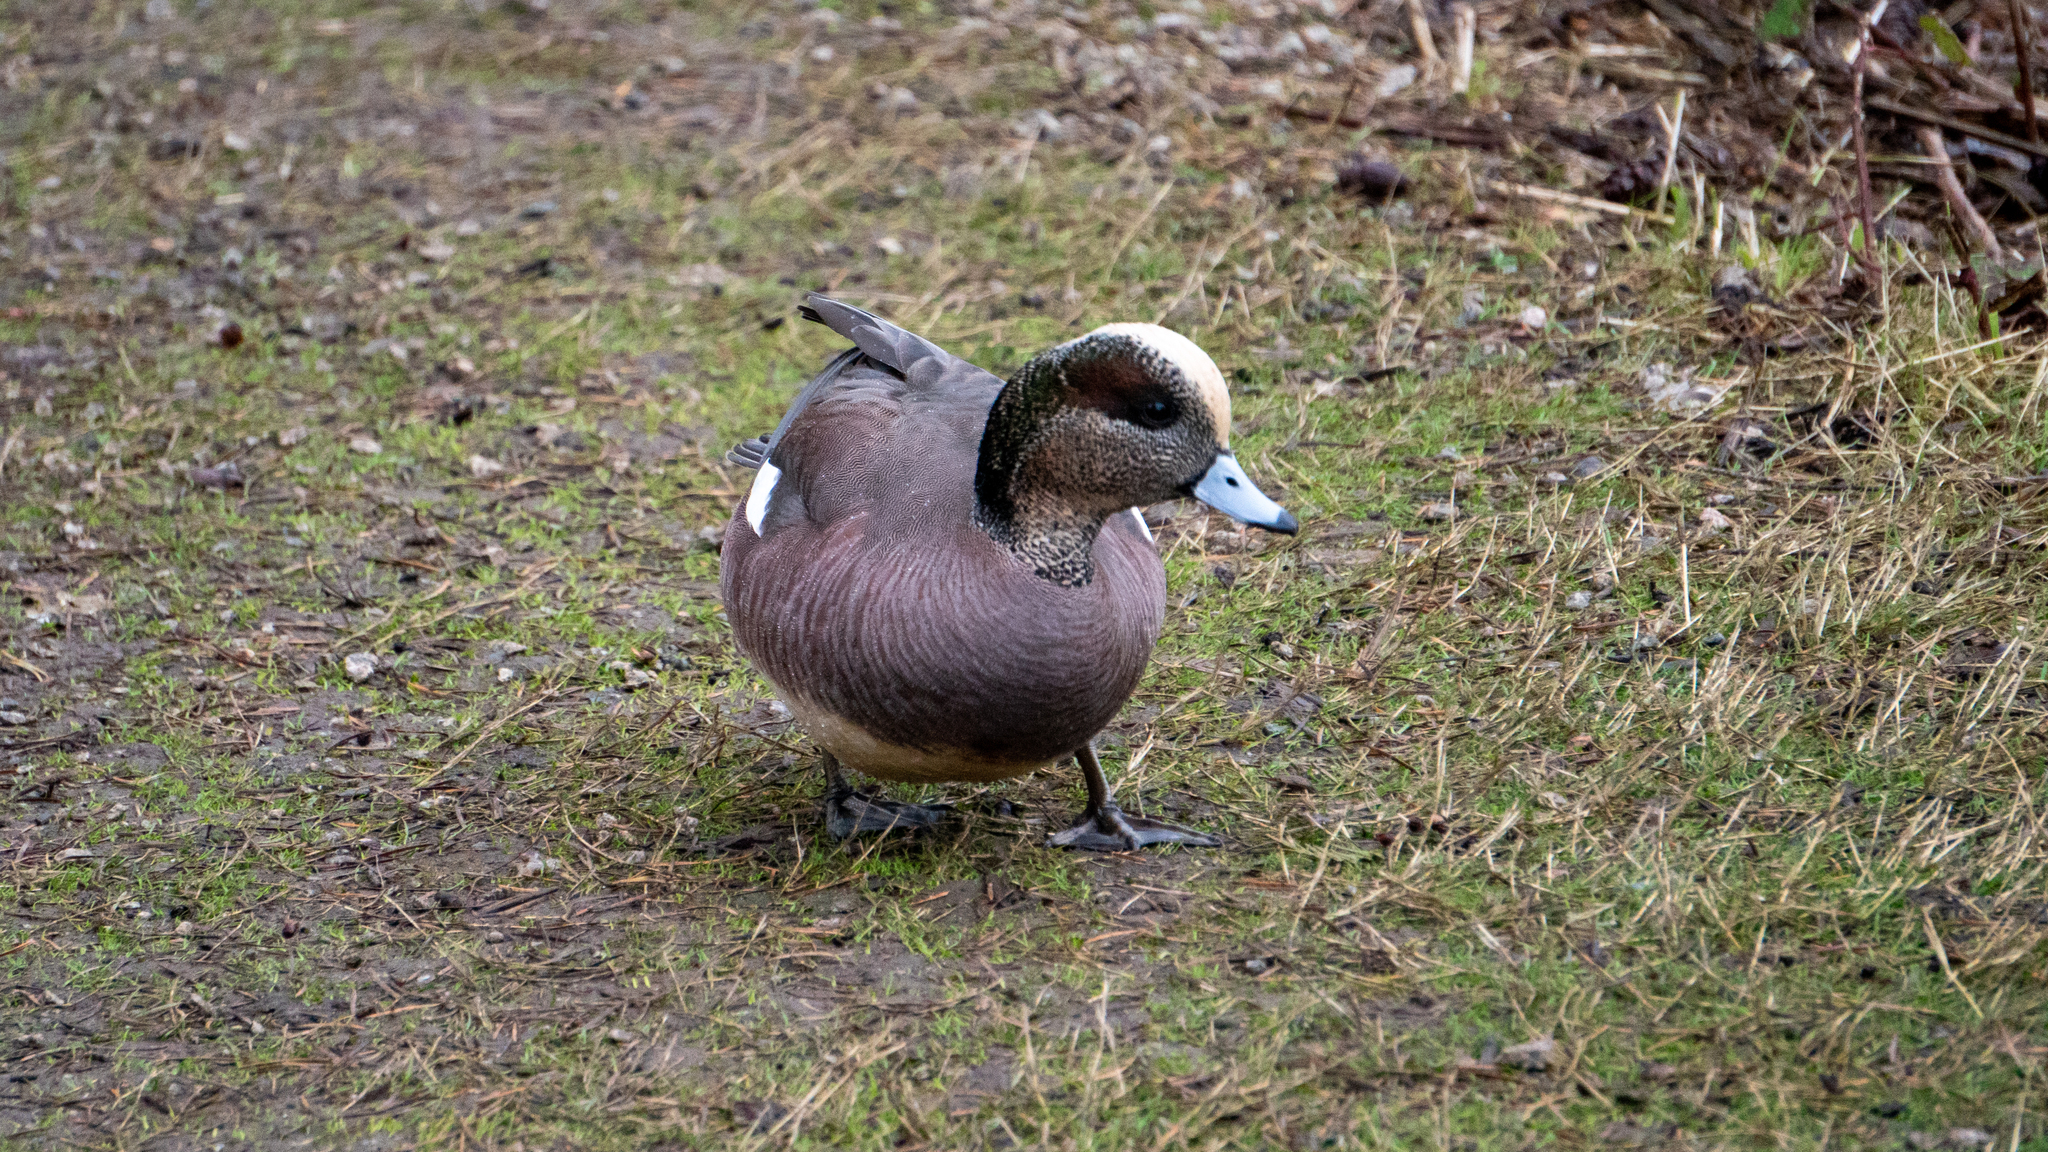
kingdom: Animalia
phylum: Chordata
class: Aves
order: Anseriformes
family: Anatidae
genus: Mareca
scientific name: Mareca americana
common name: American wigeon
